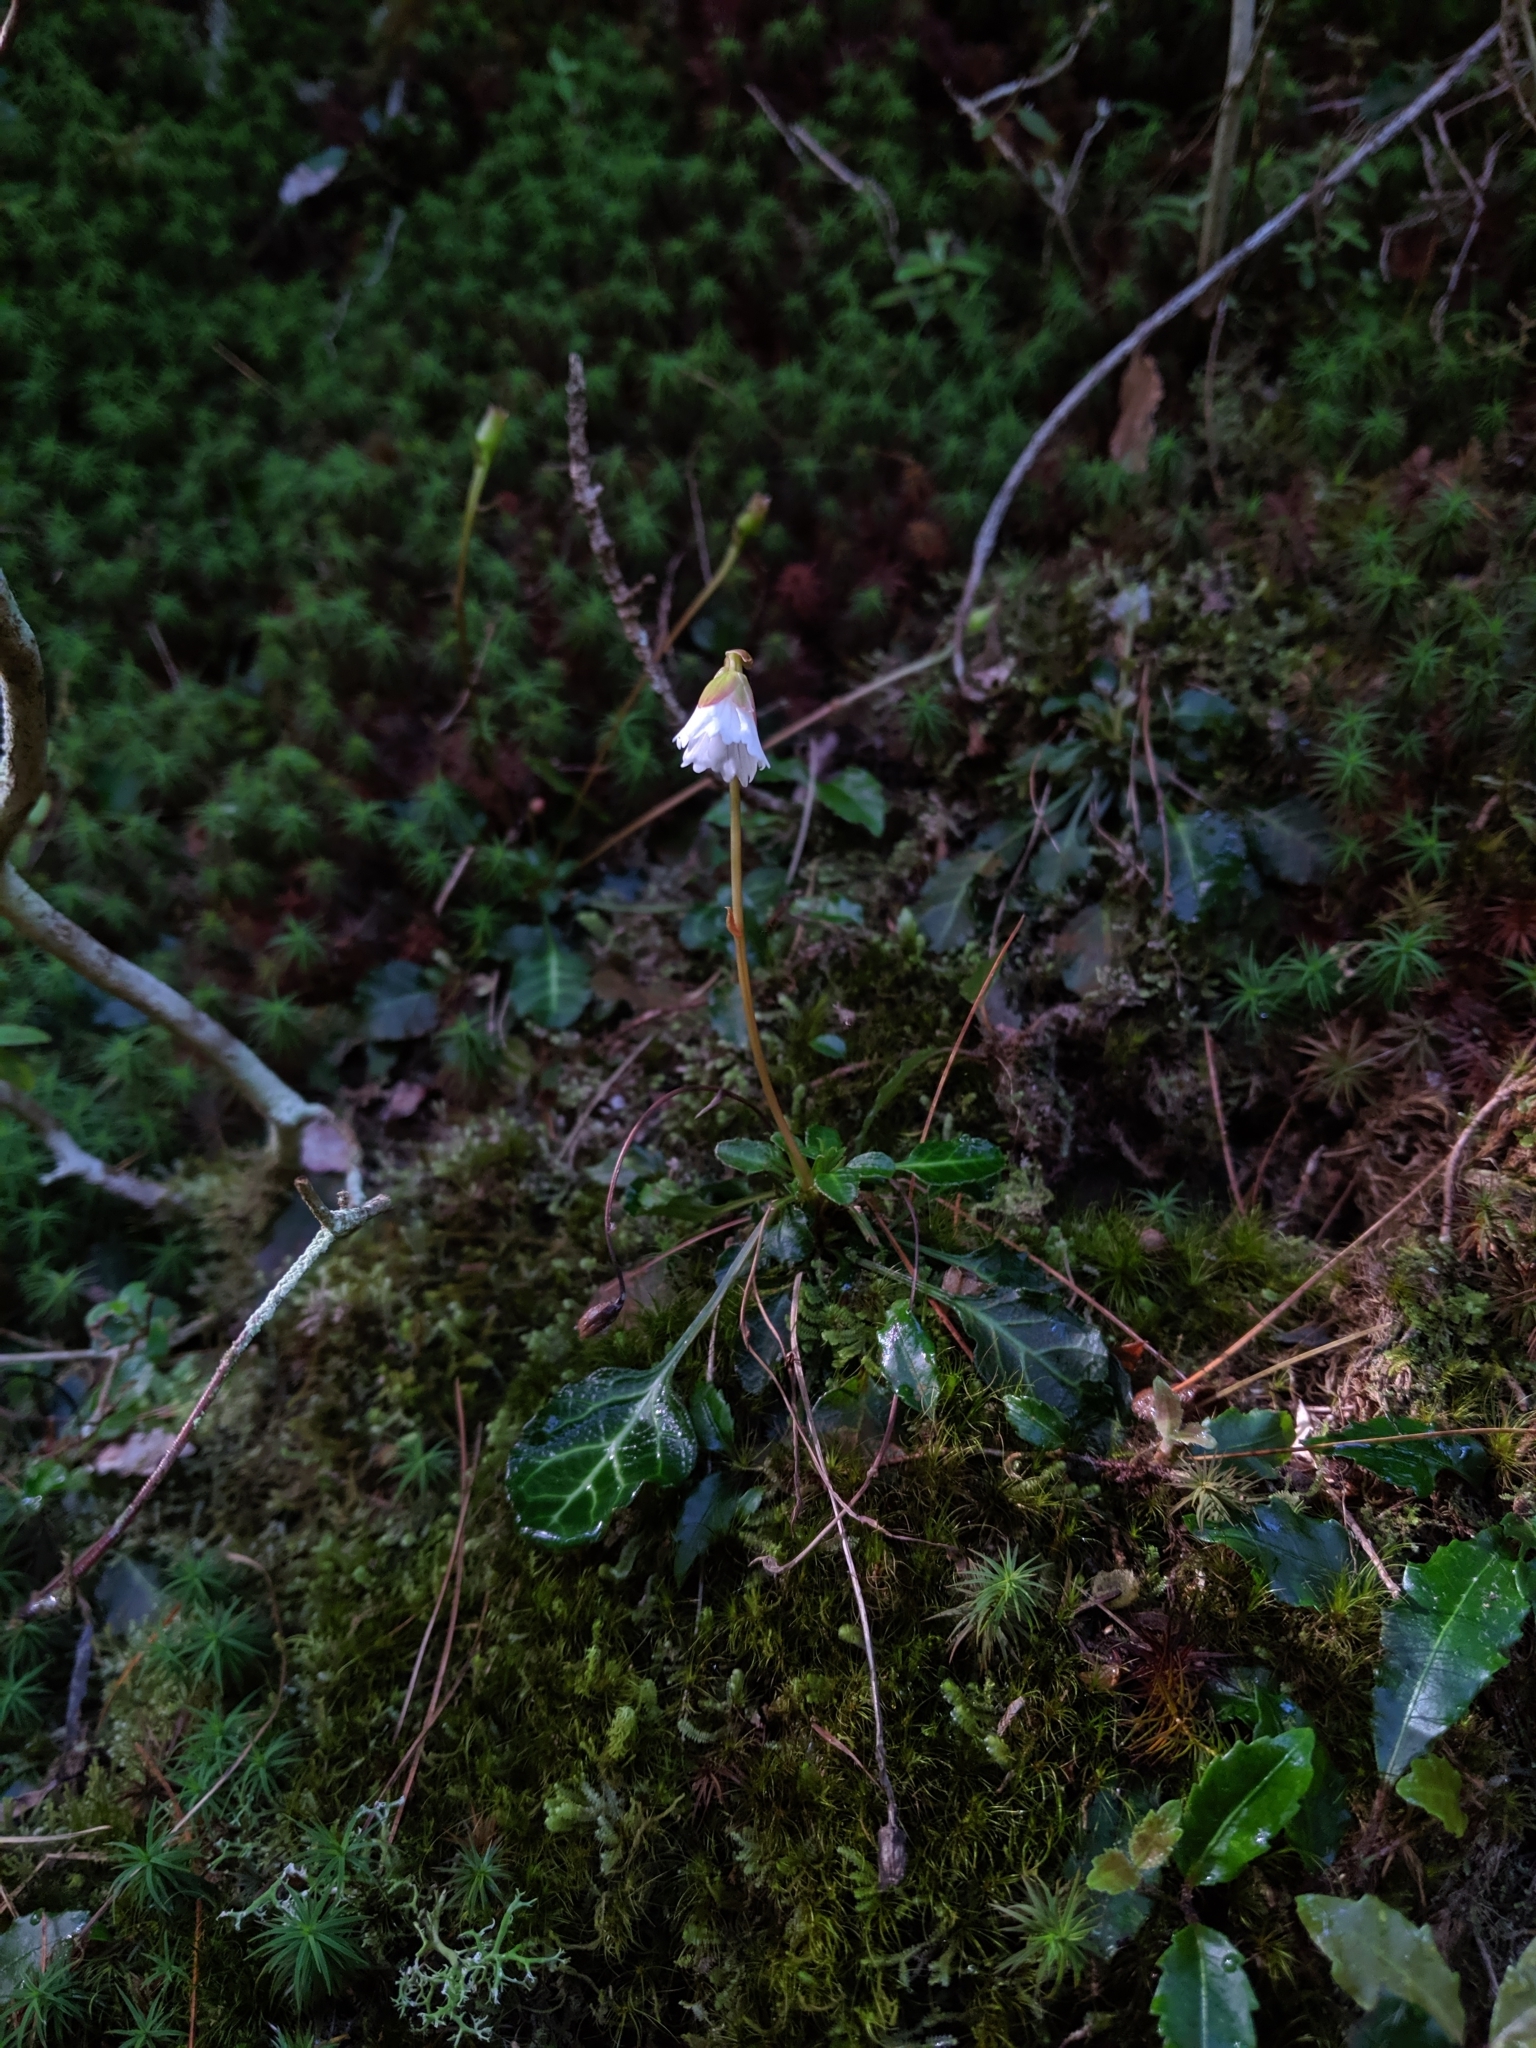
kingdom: Plantae
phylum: Tracheophyta
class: Magnoliopsida
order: Ericales
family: Diapensiaceae
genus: Shortia
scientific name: Shortia rotundifolia
